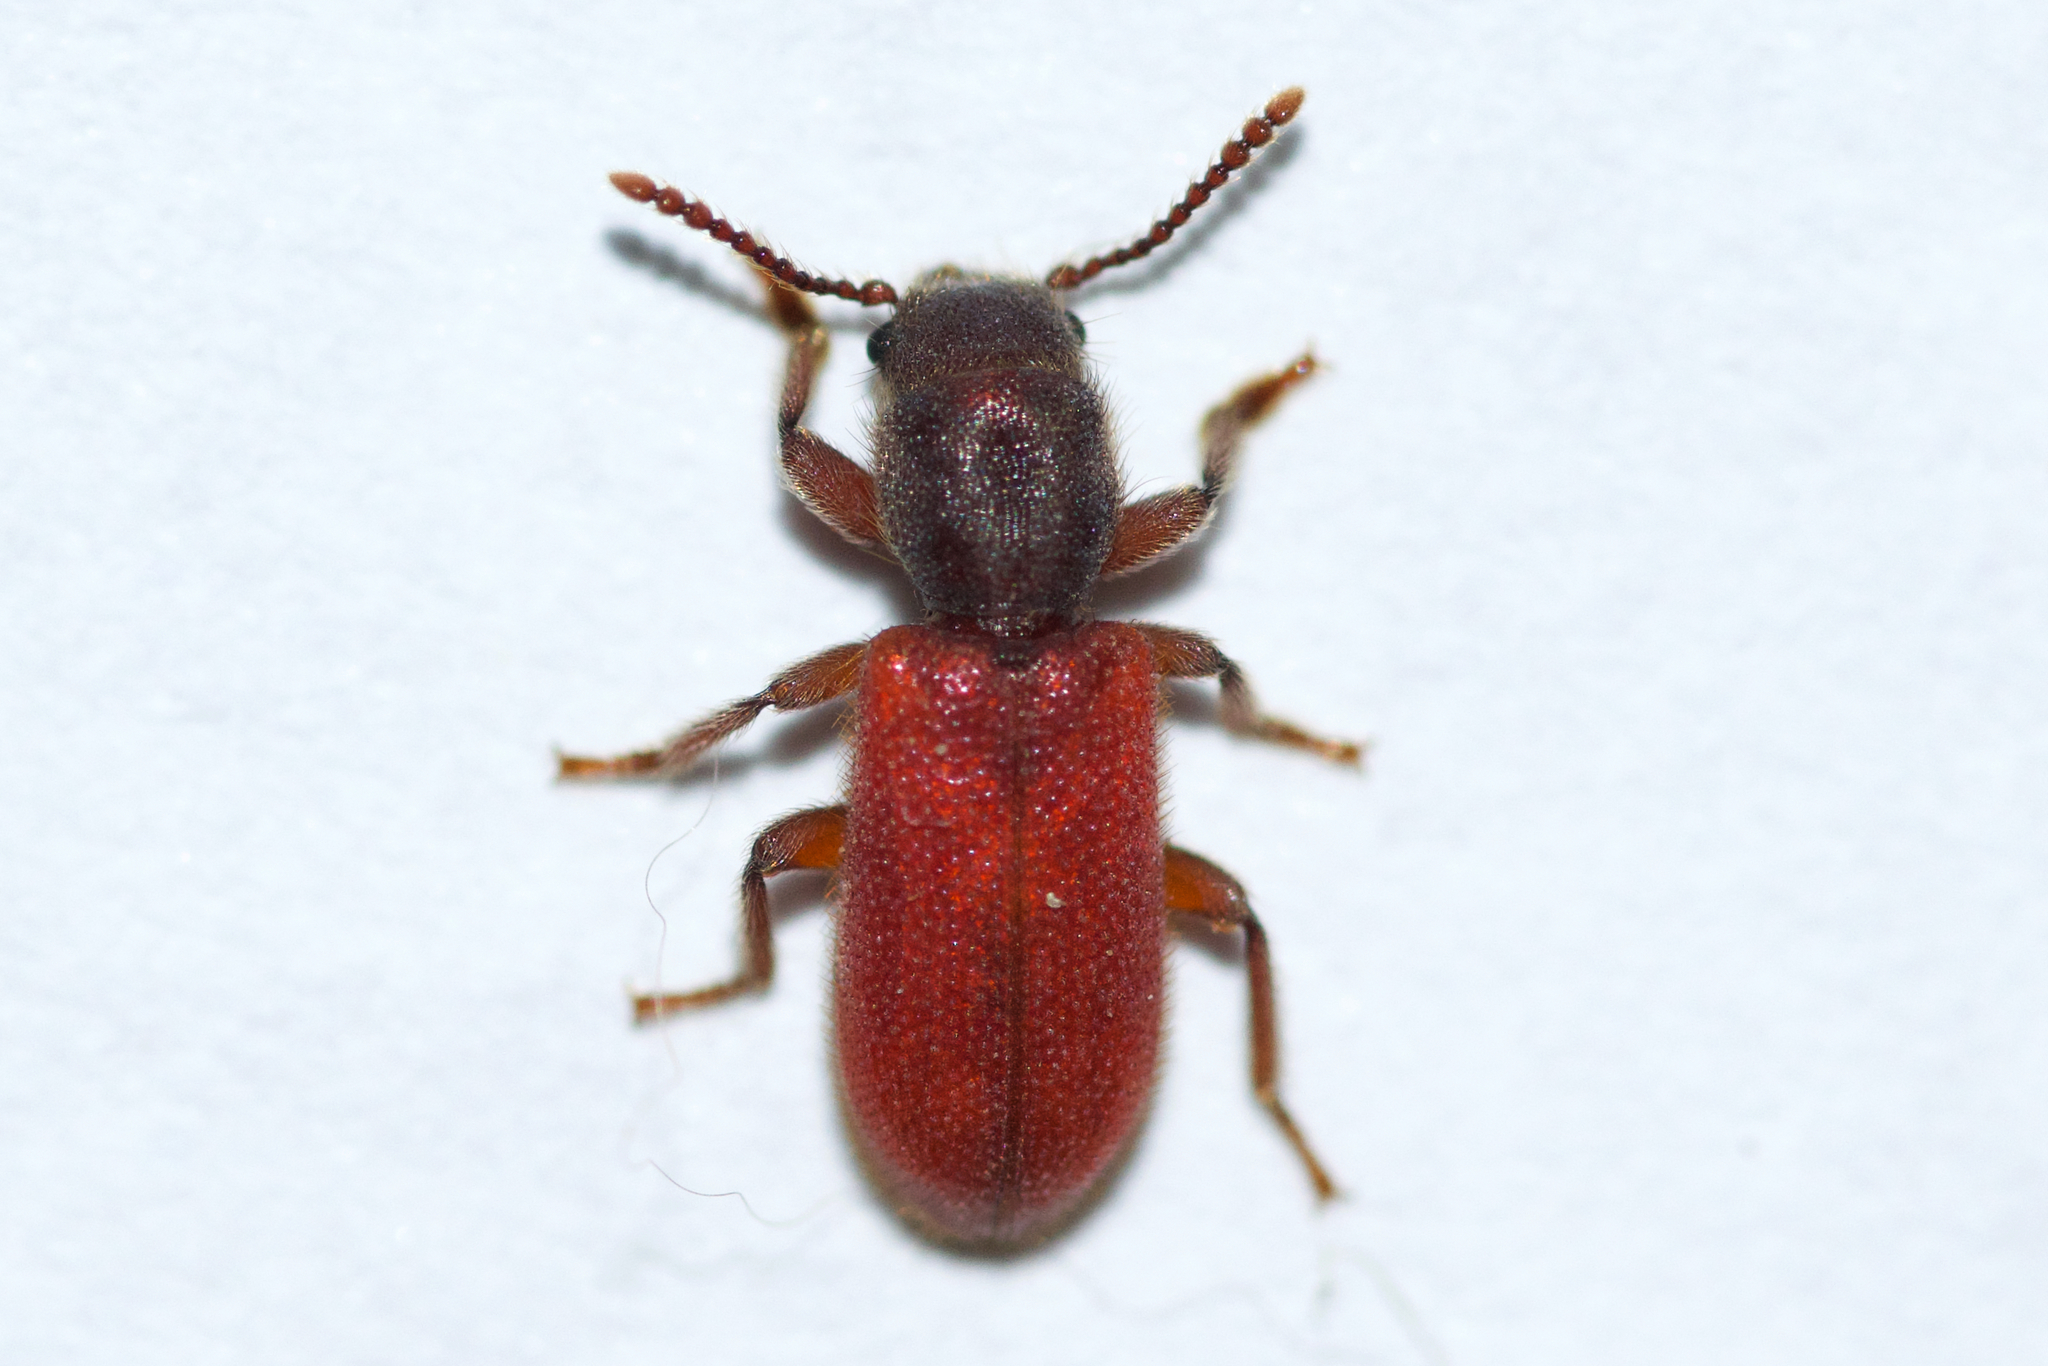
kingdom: Animalia
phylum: Arthropoda
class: Insecta
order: Coleoptera
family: Thanerocleridae
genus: Zenodosus
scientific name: Zenodosus sanguineus
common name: Blood-colored checkered beetle
